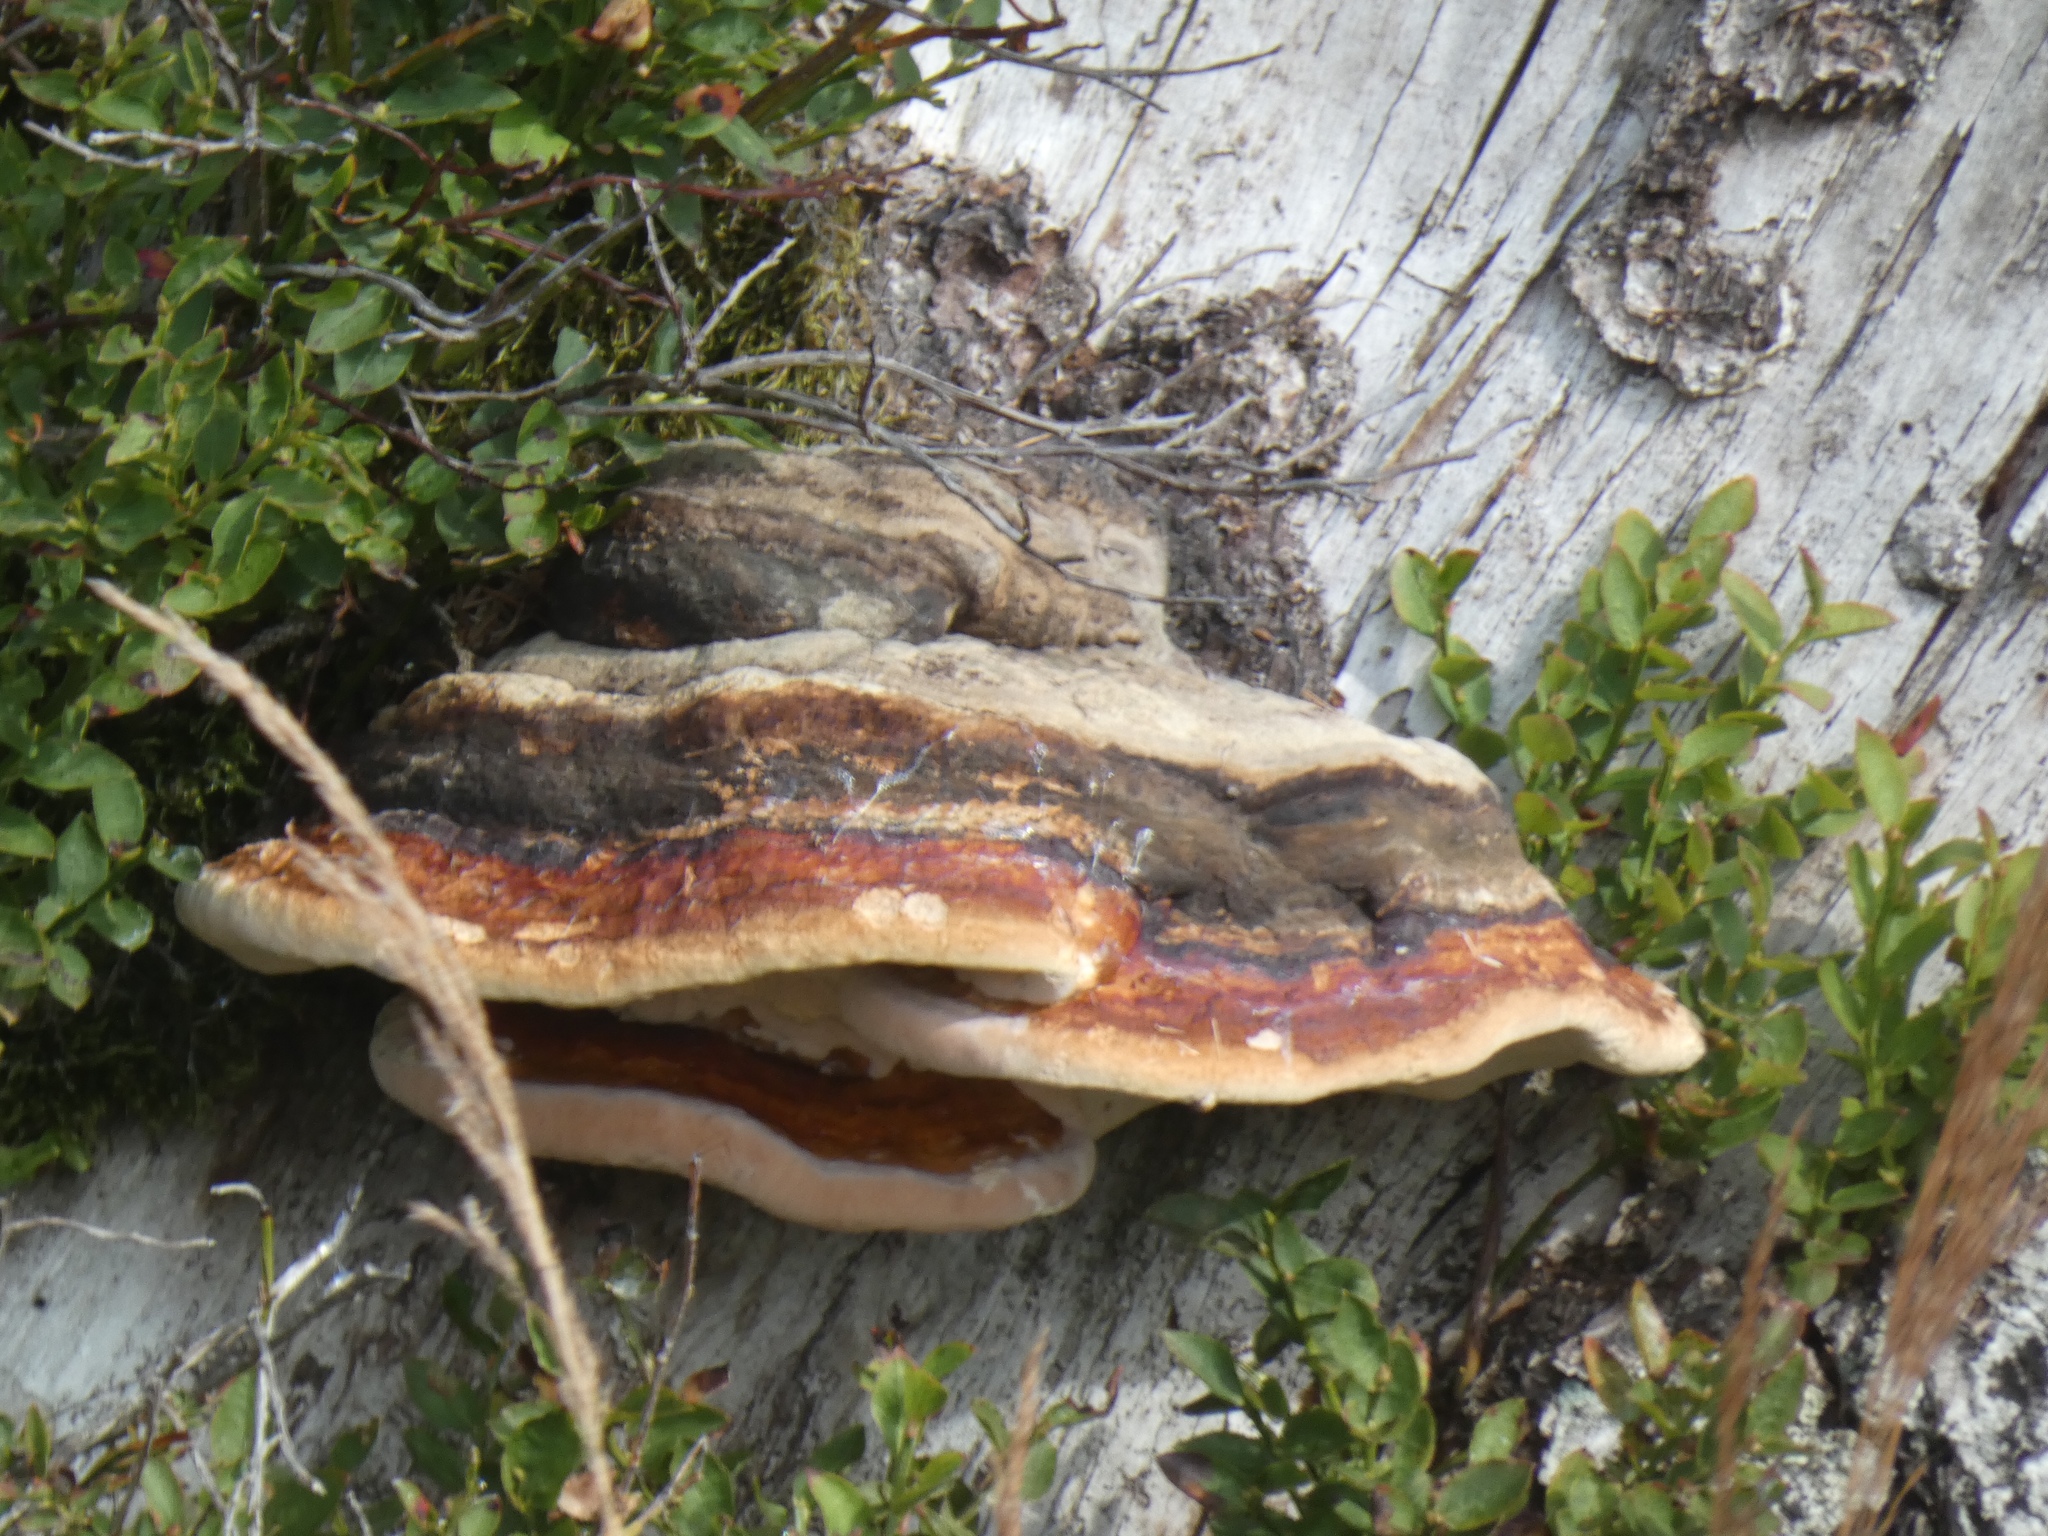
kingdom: Fungi
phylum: Basidiomycota
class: Agaricomycetes
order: Polyporales
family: Fomitopsidaceae
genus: Fomitopsis
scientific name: Fomitopsis pinicola
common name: Red-belted bracket
